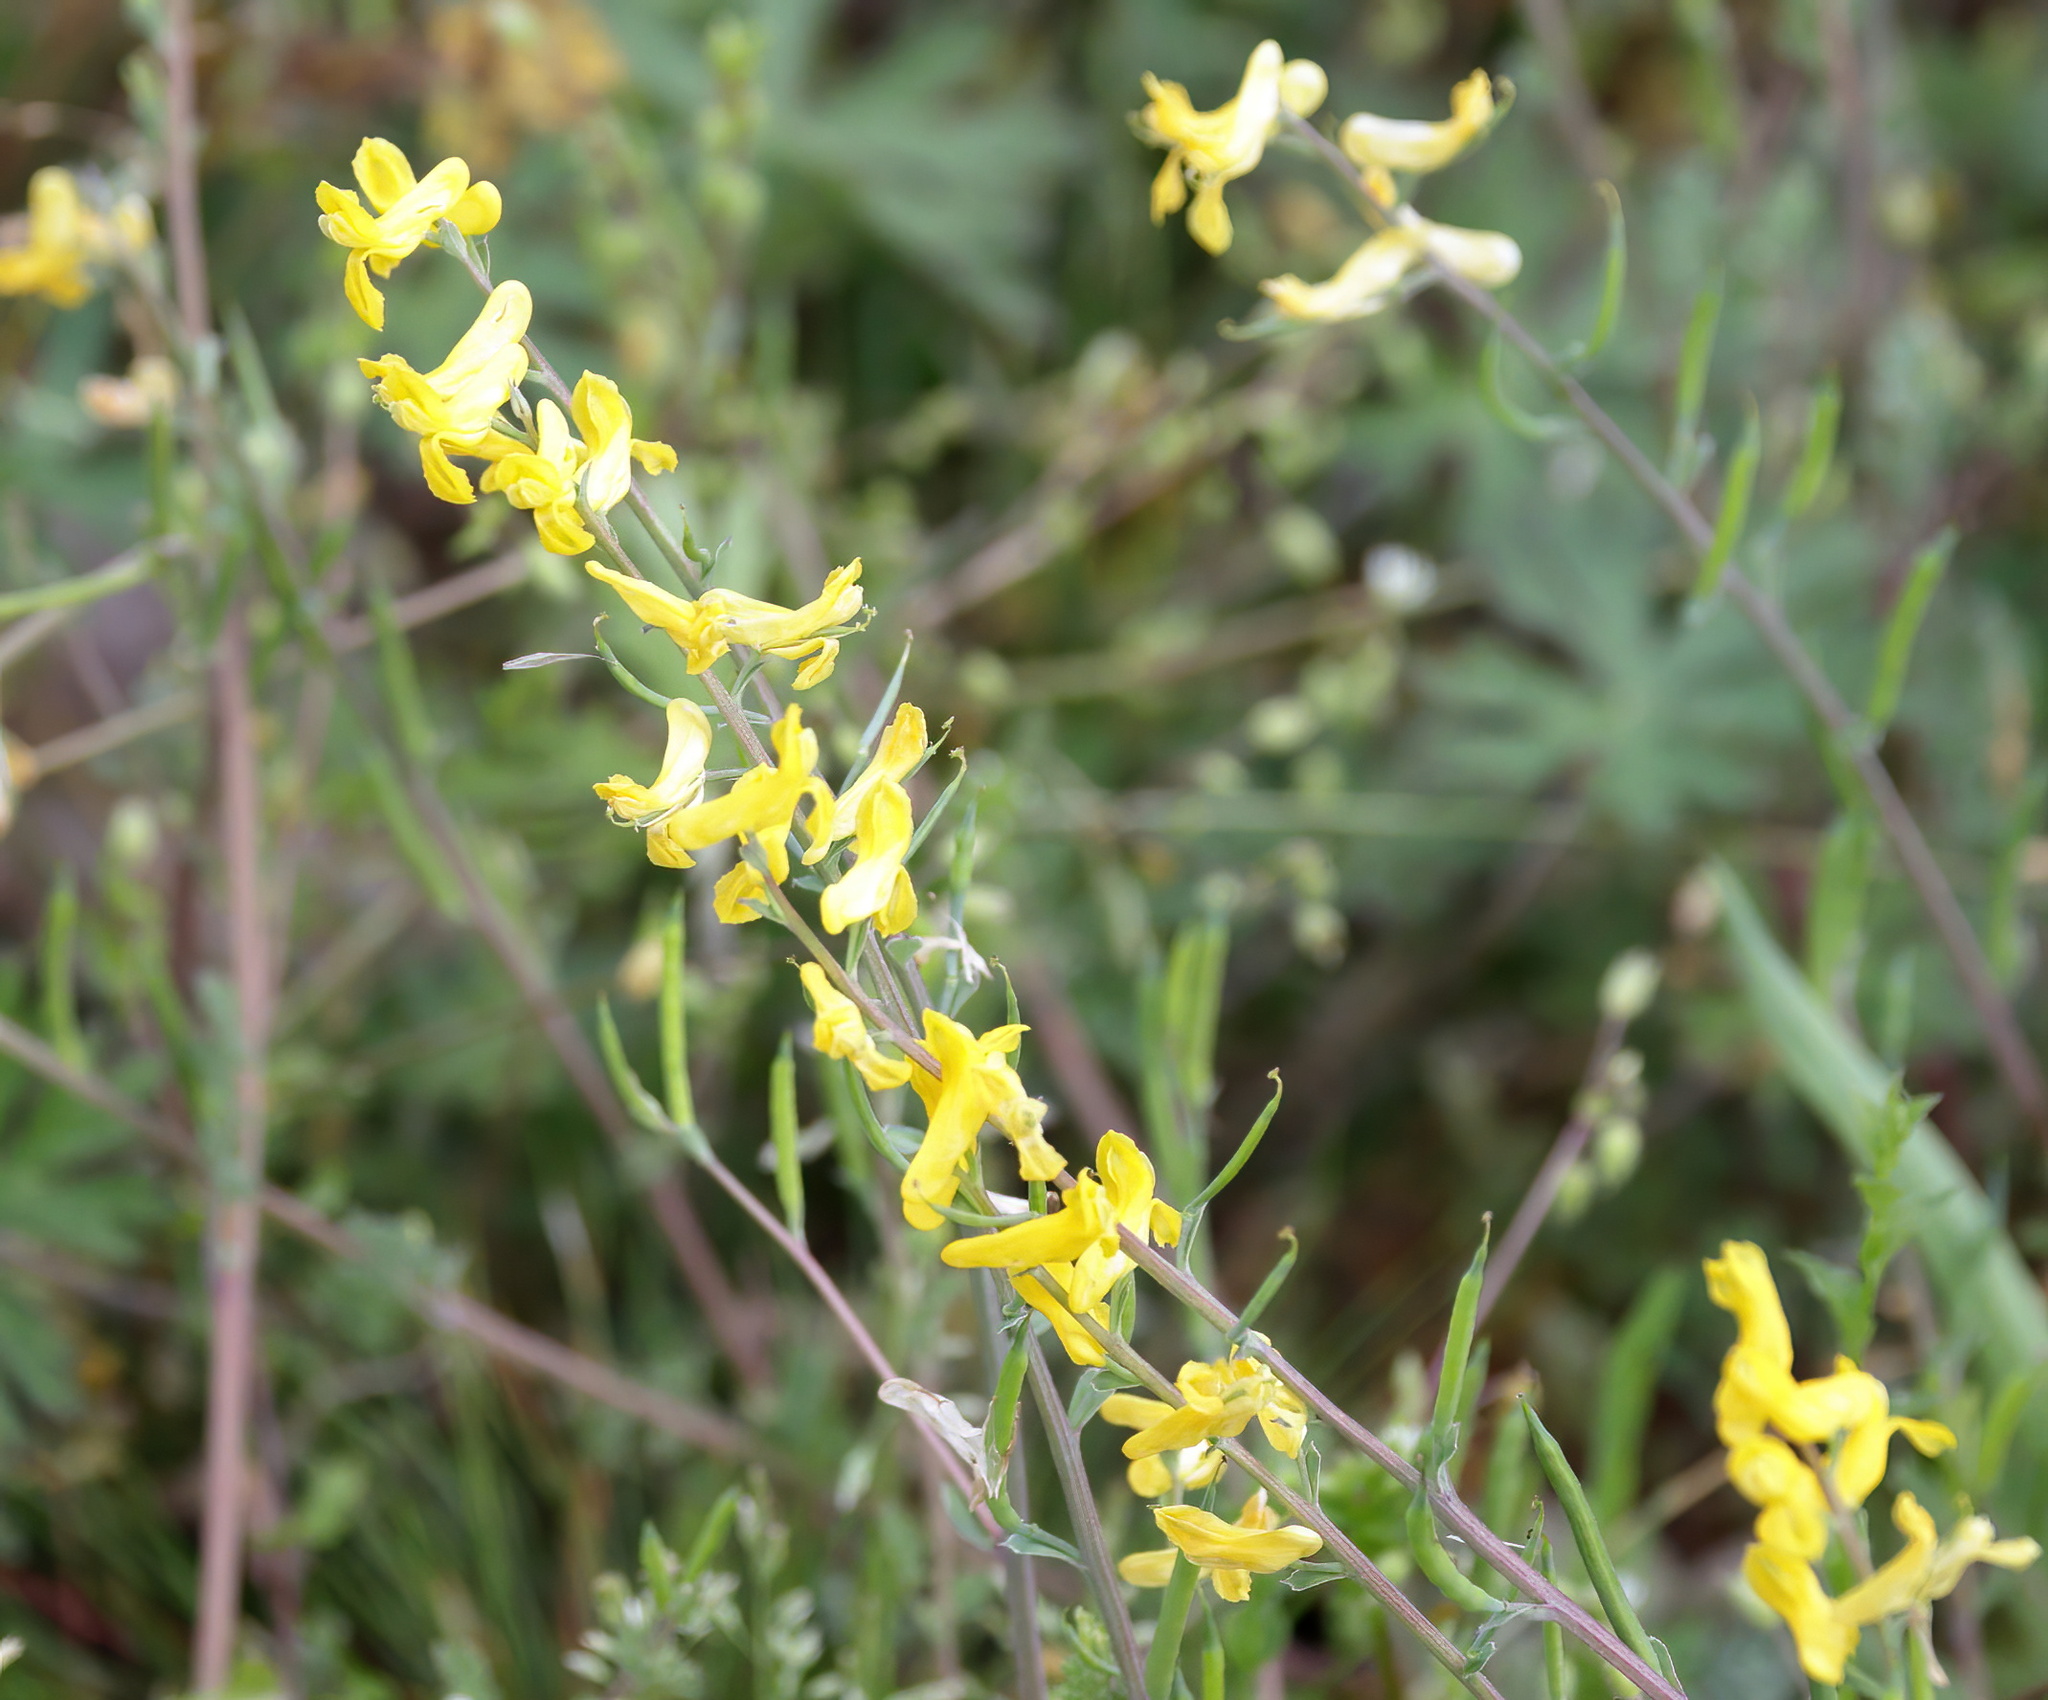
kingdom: Plantae
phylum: Tracheophyta
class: Magnoliopsida
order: Ranunculales
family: Papaveraceae
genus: Corydalis
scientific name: Corydalis micrantha
